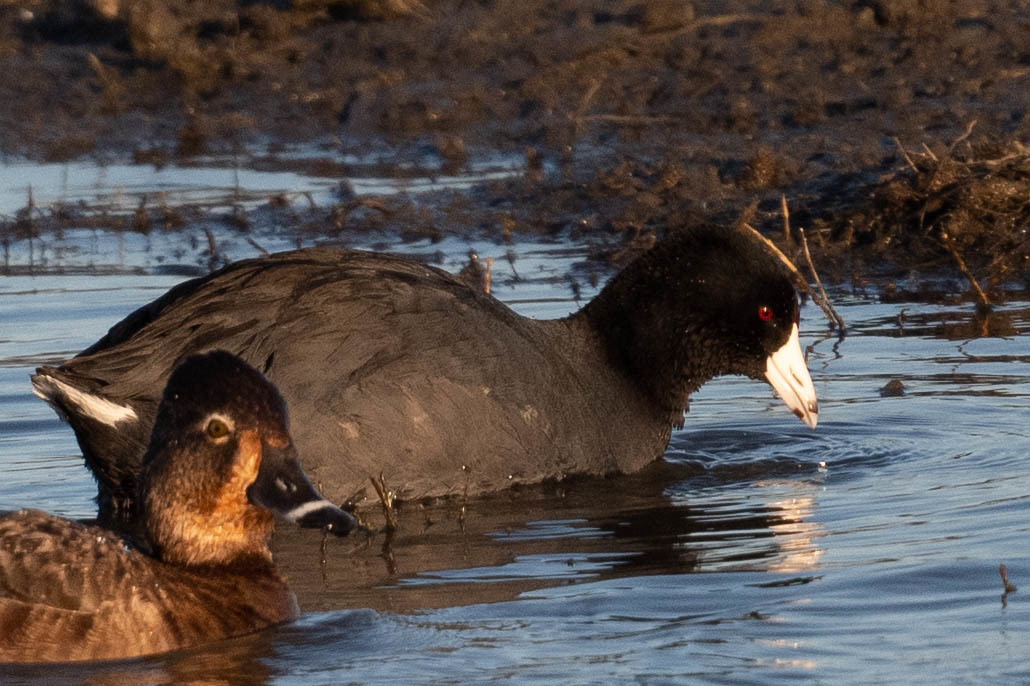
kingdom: Animalia
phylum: Chordata
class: Aves
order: Gruiformes
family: Rallidae
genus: Fulica
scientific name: Fulica americana
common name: American coot
